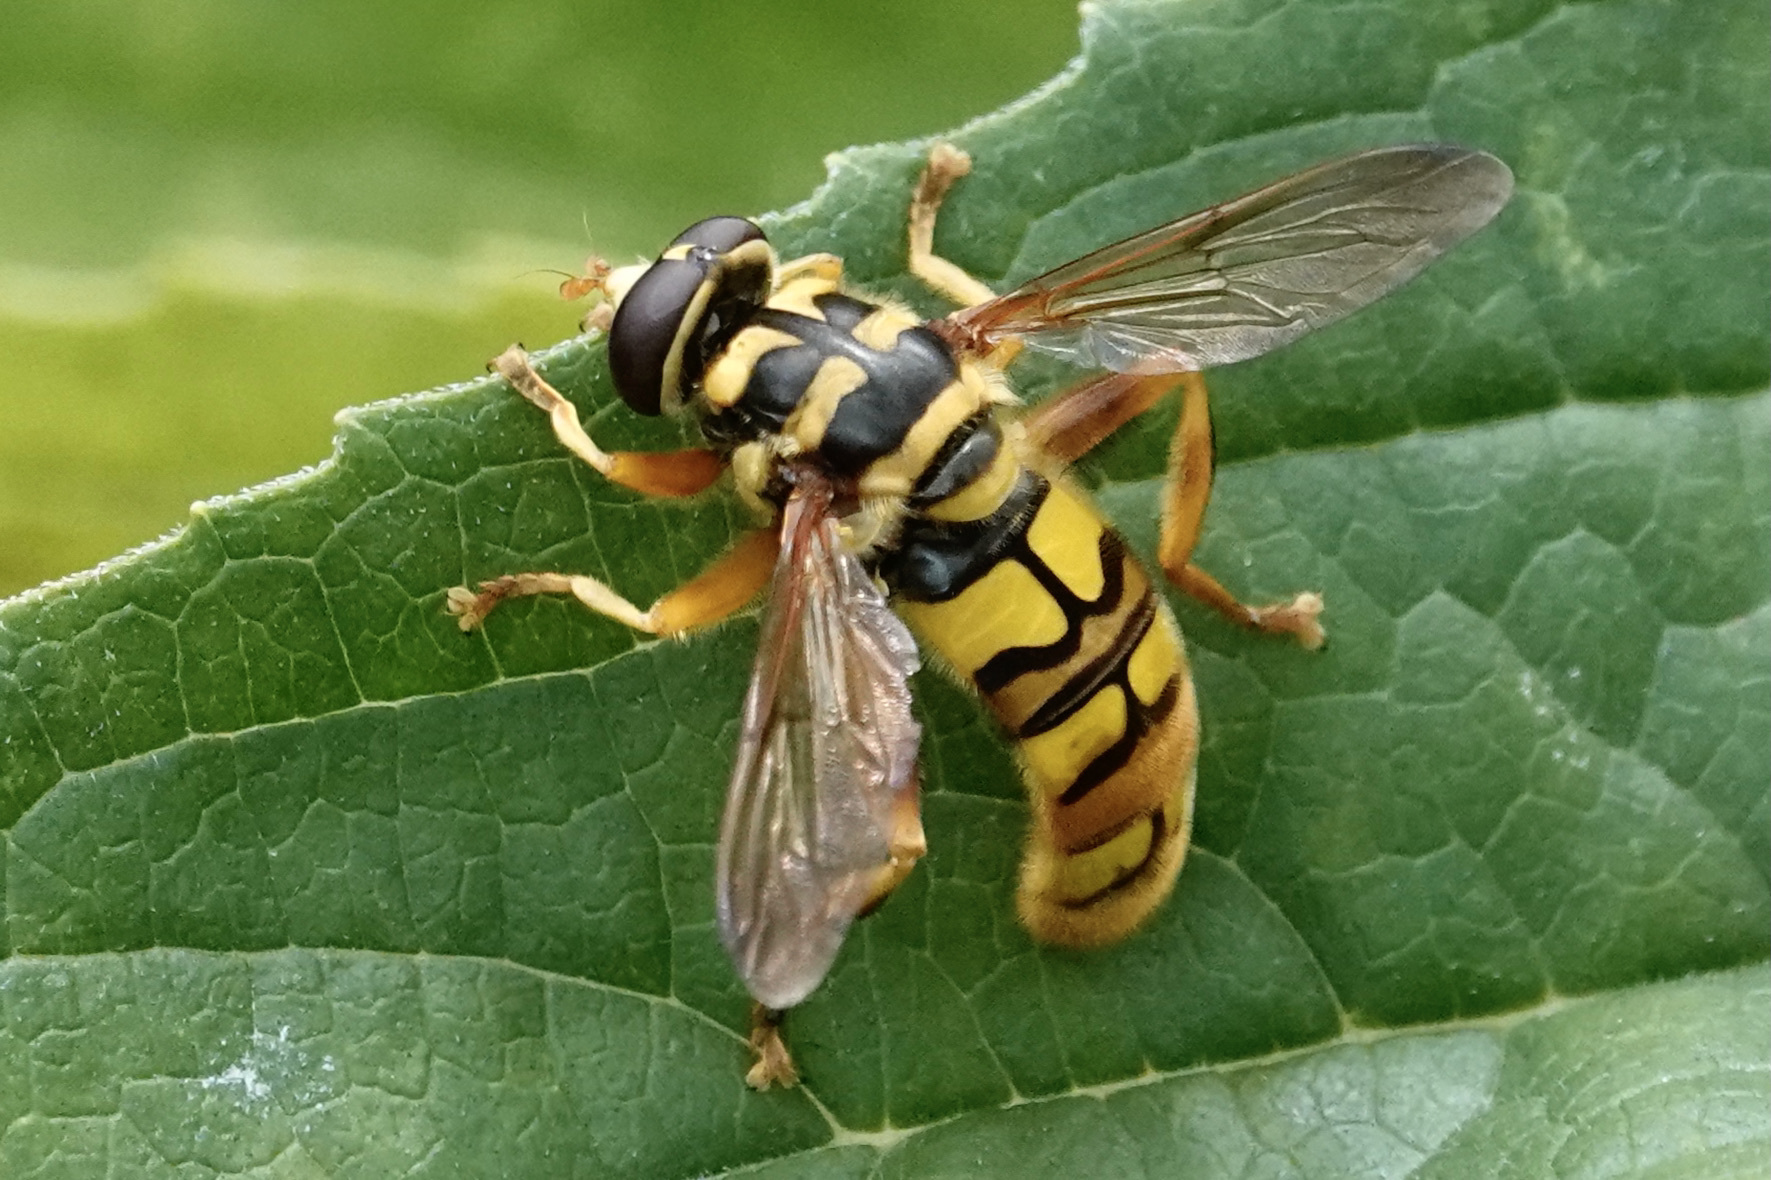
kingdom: Animalia
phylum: Arthropoda
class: Insecta
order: Diptera
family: Syrphidae
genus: Milesia
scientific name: Milesia virginiensis
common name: Virginia giant
